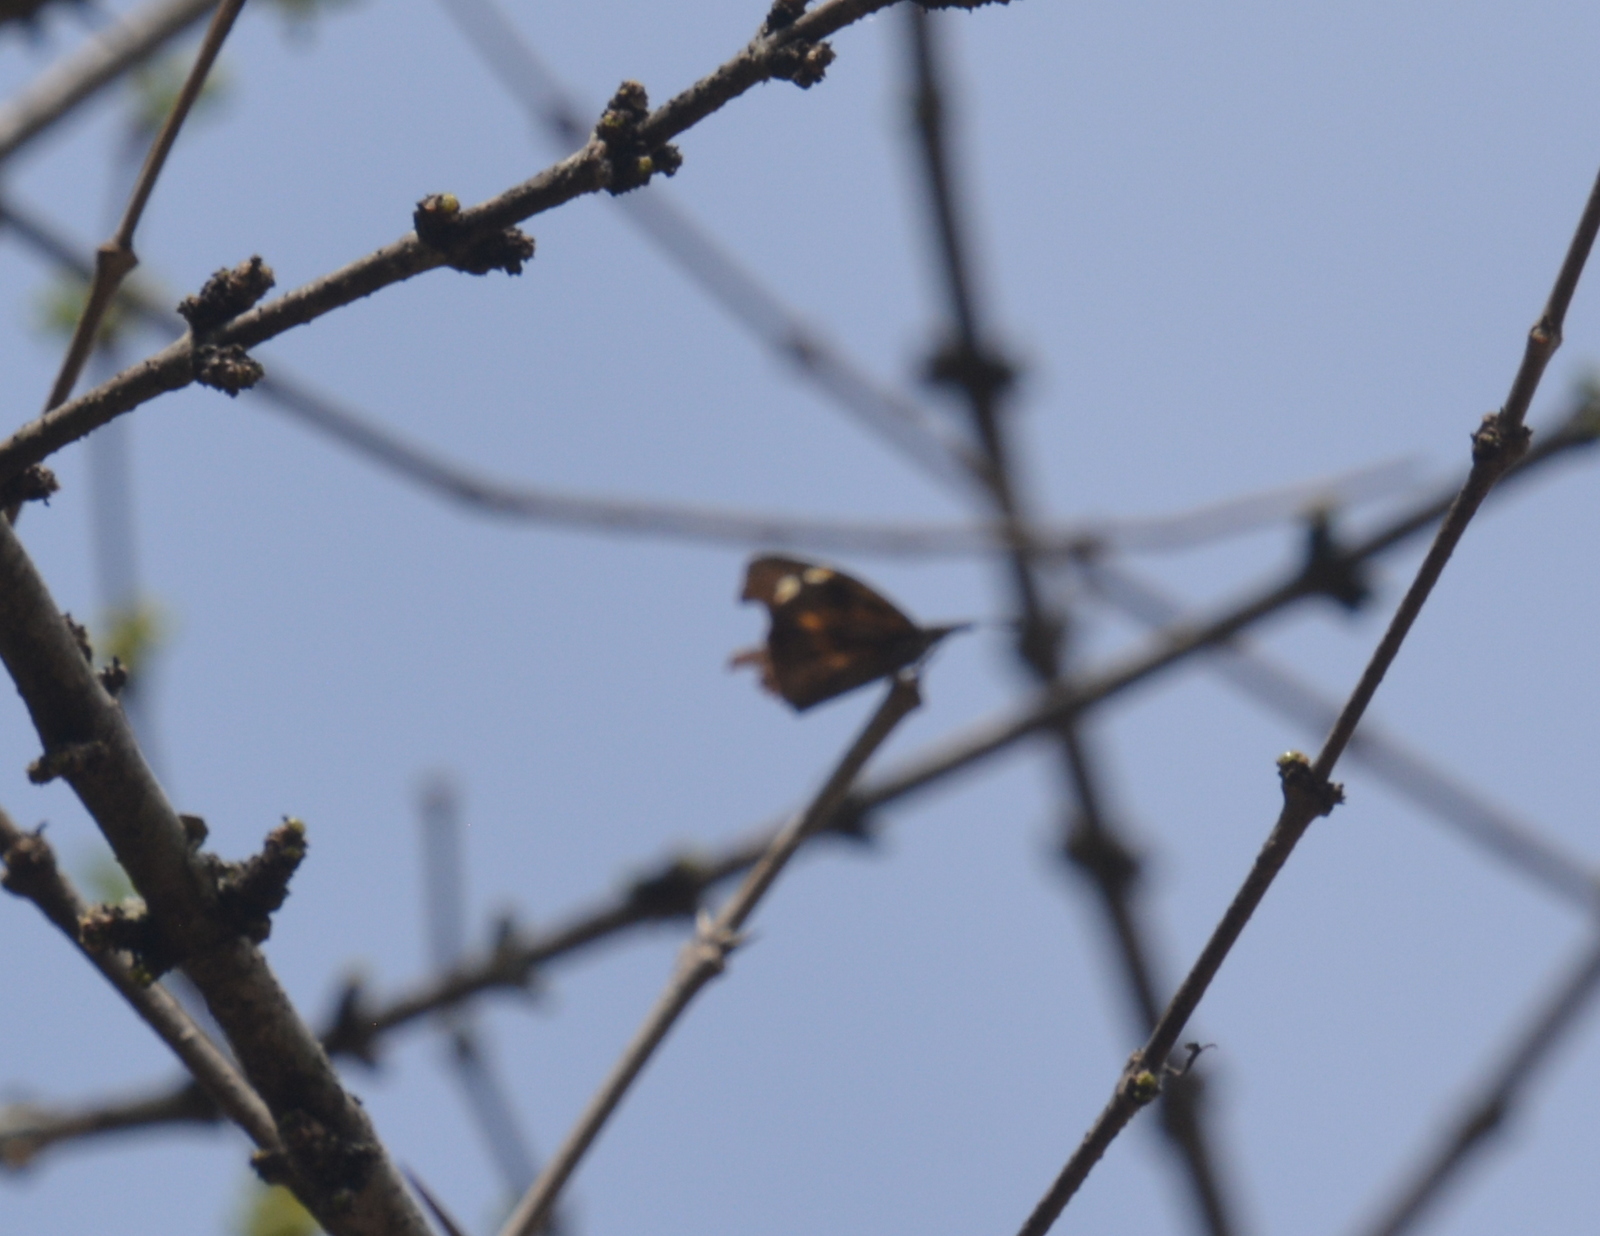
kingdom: Animalia
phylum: Arthropoda
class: Insecta
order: Lepidoptera
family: Nymphalidae
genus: Libythea
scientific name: Libythea myrrha
